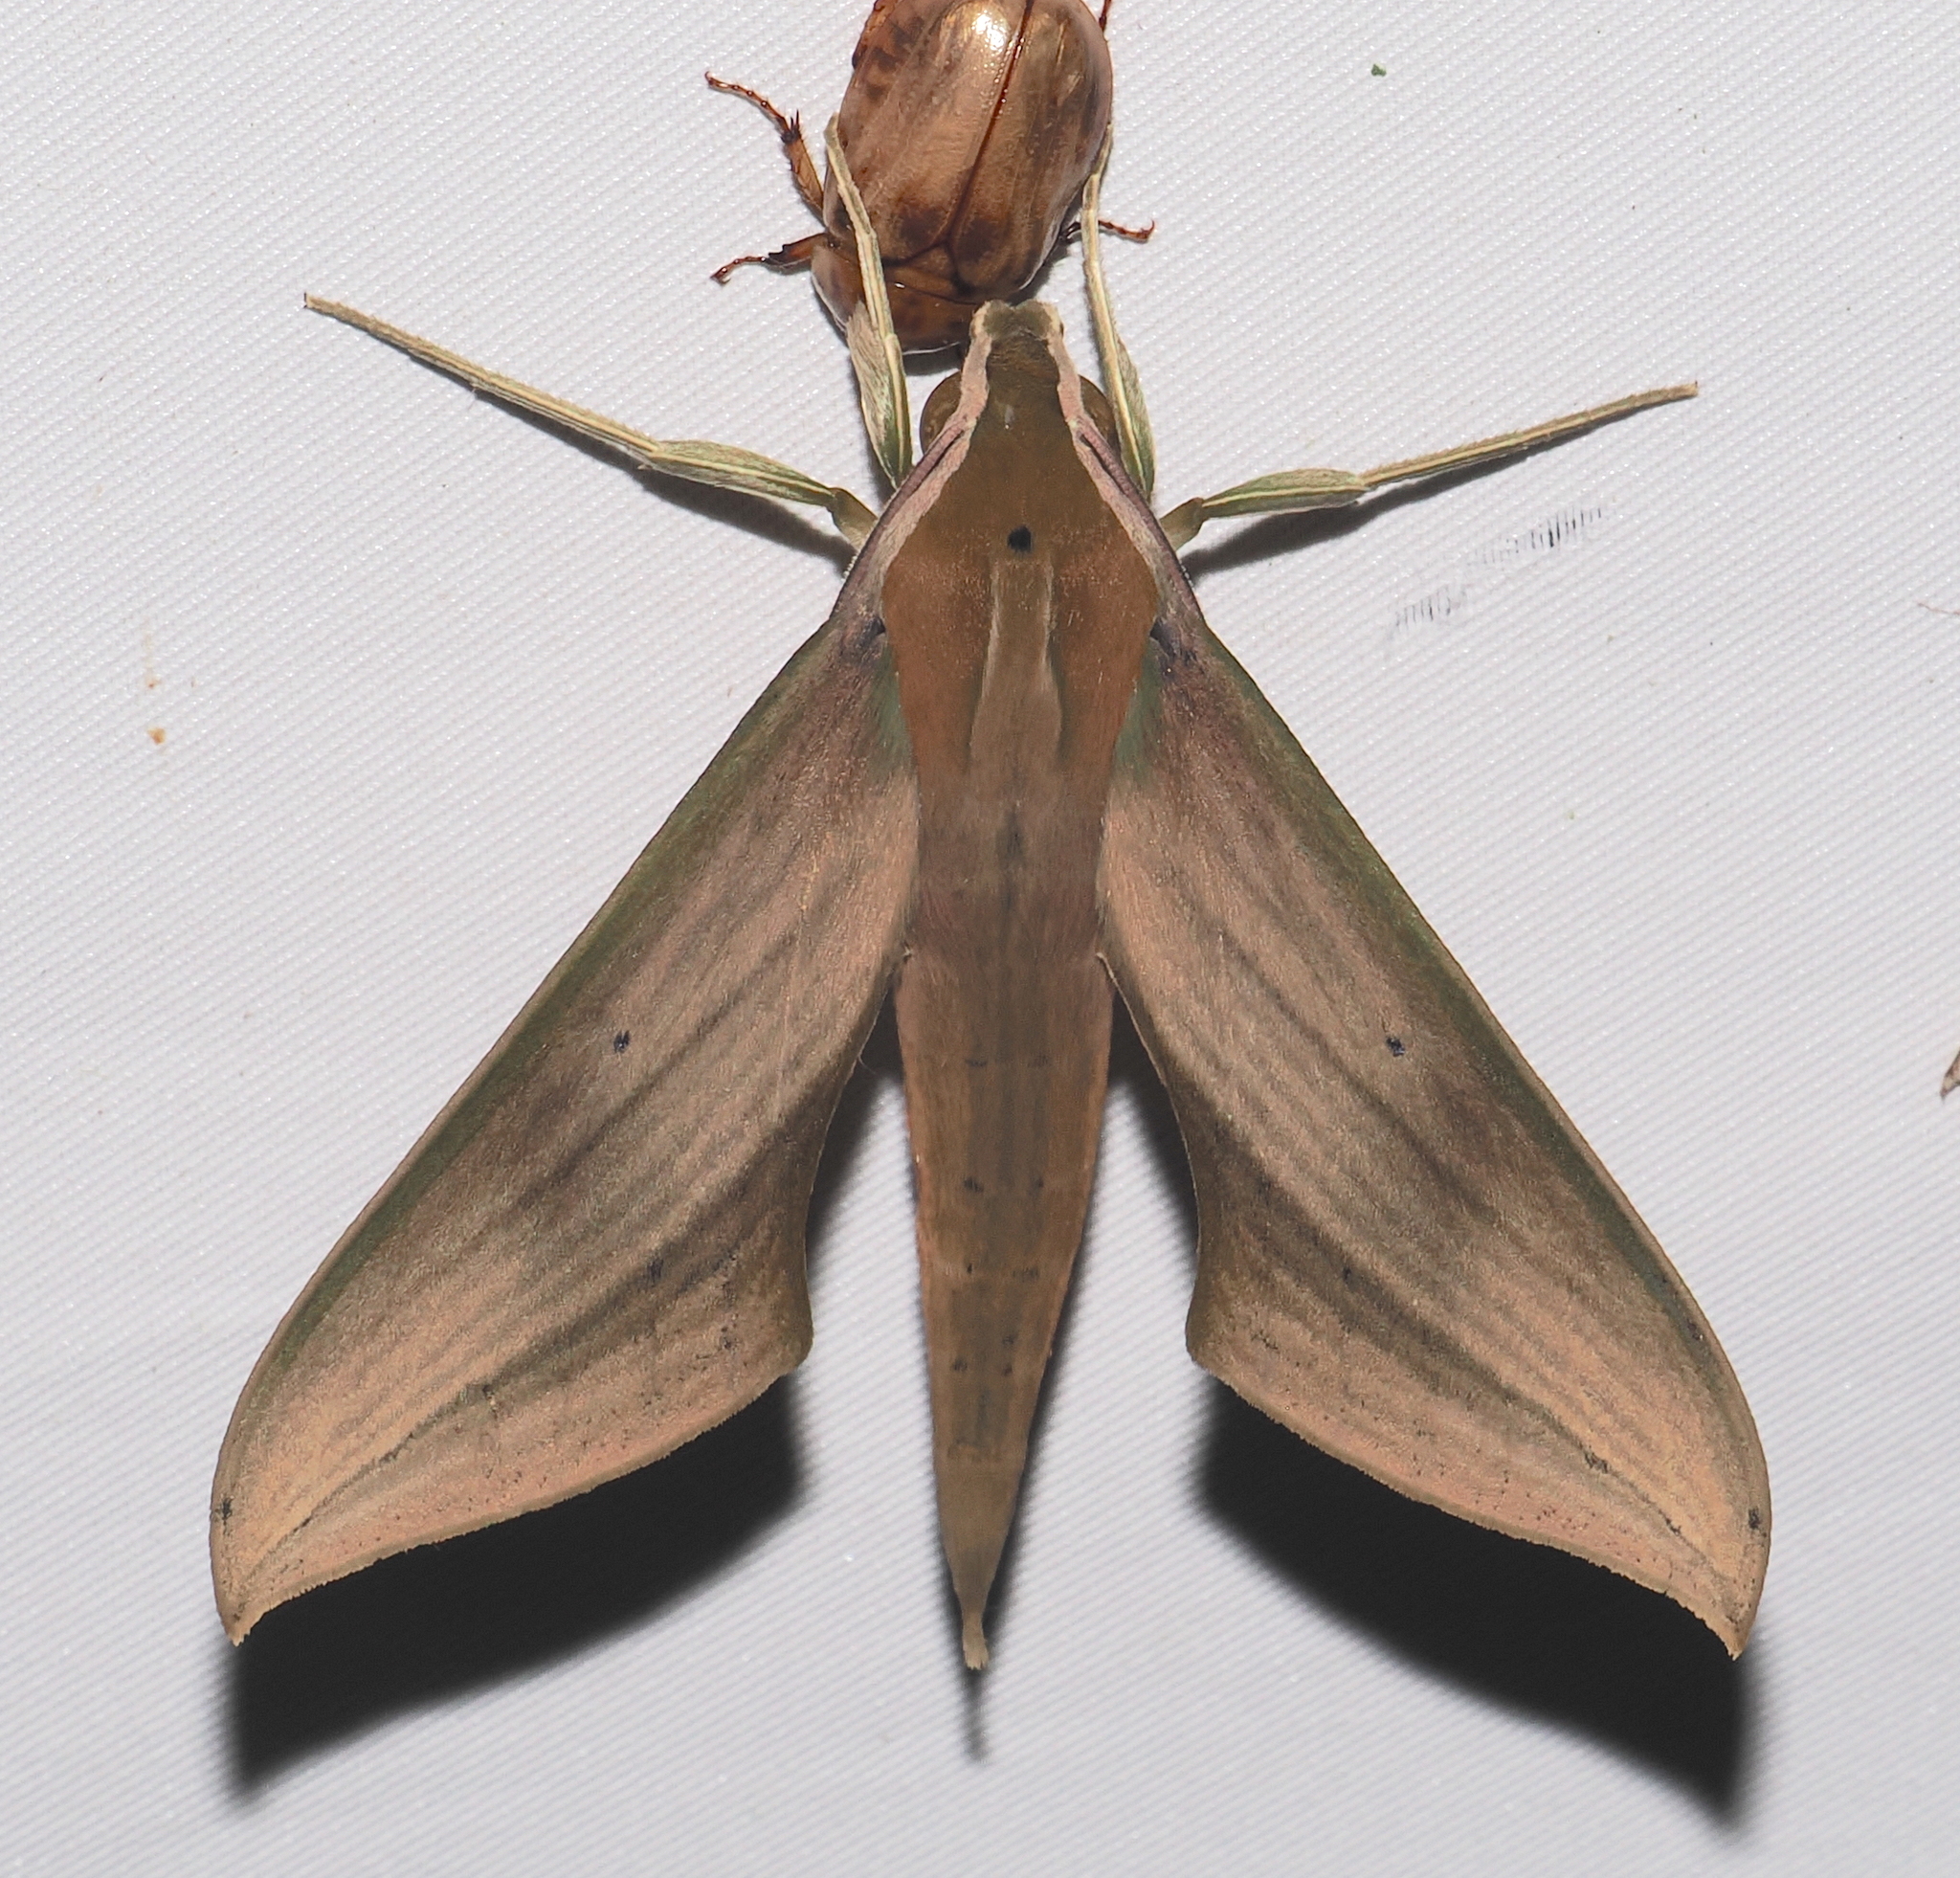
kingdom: Animalia
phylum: Arthropoda
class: Insecta
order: Lepidoptera
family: Sphingidae
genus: Xylophanes
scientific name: Xylophanes loelia
